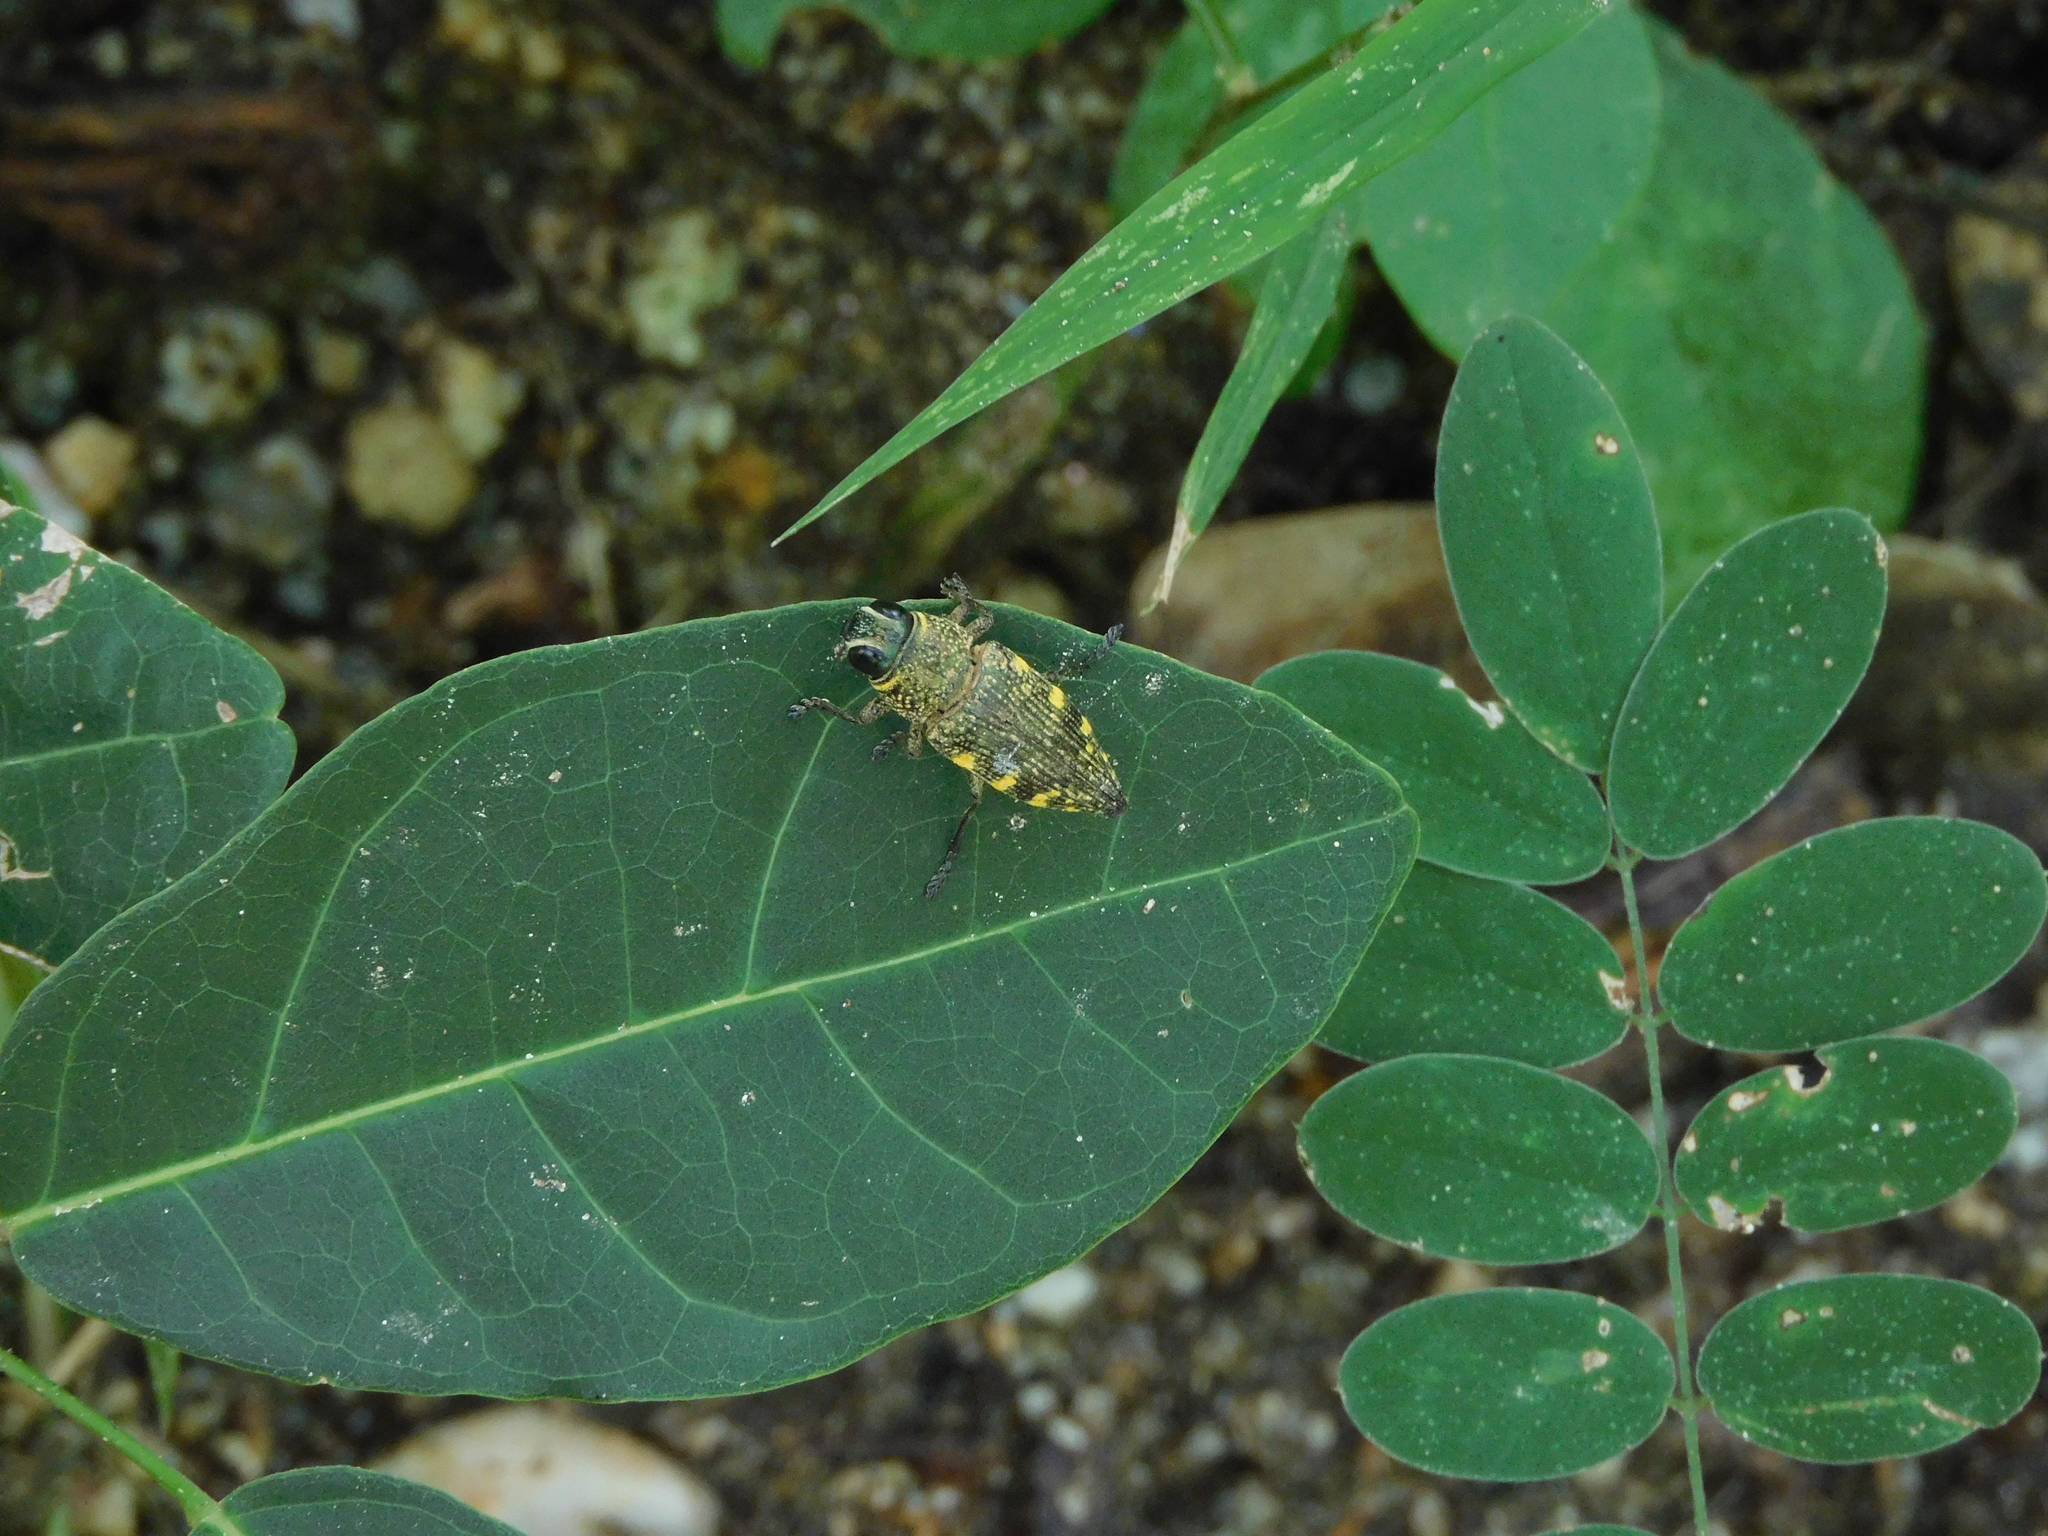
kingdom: Animalia
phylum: Arthropoda
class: Insecta
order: Coleoptera
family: Buprestidae
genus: Lampetis
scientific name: Lampetis hirtomaculata
